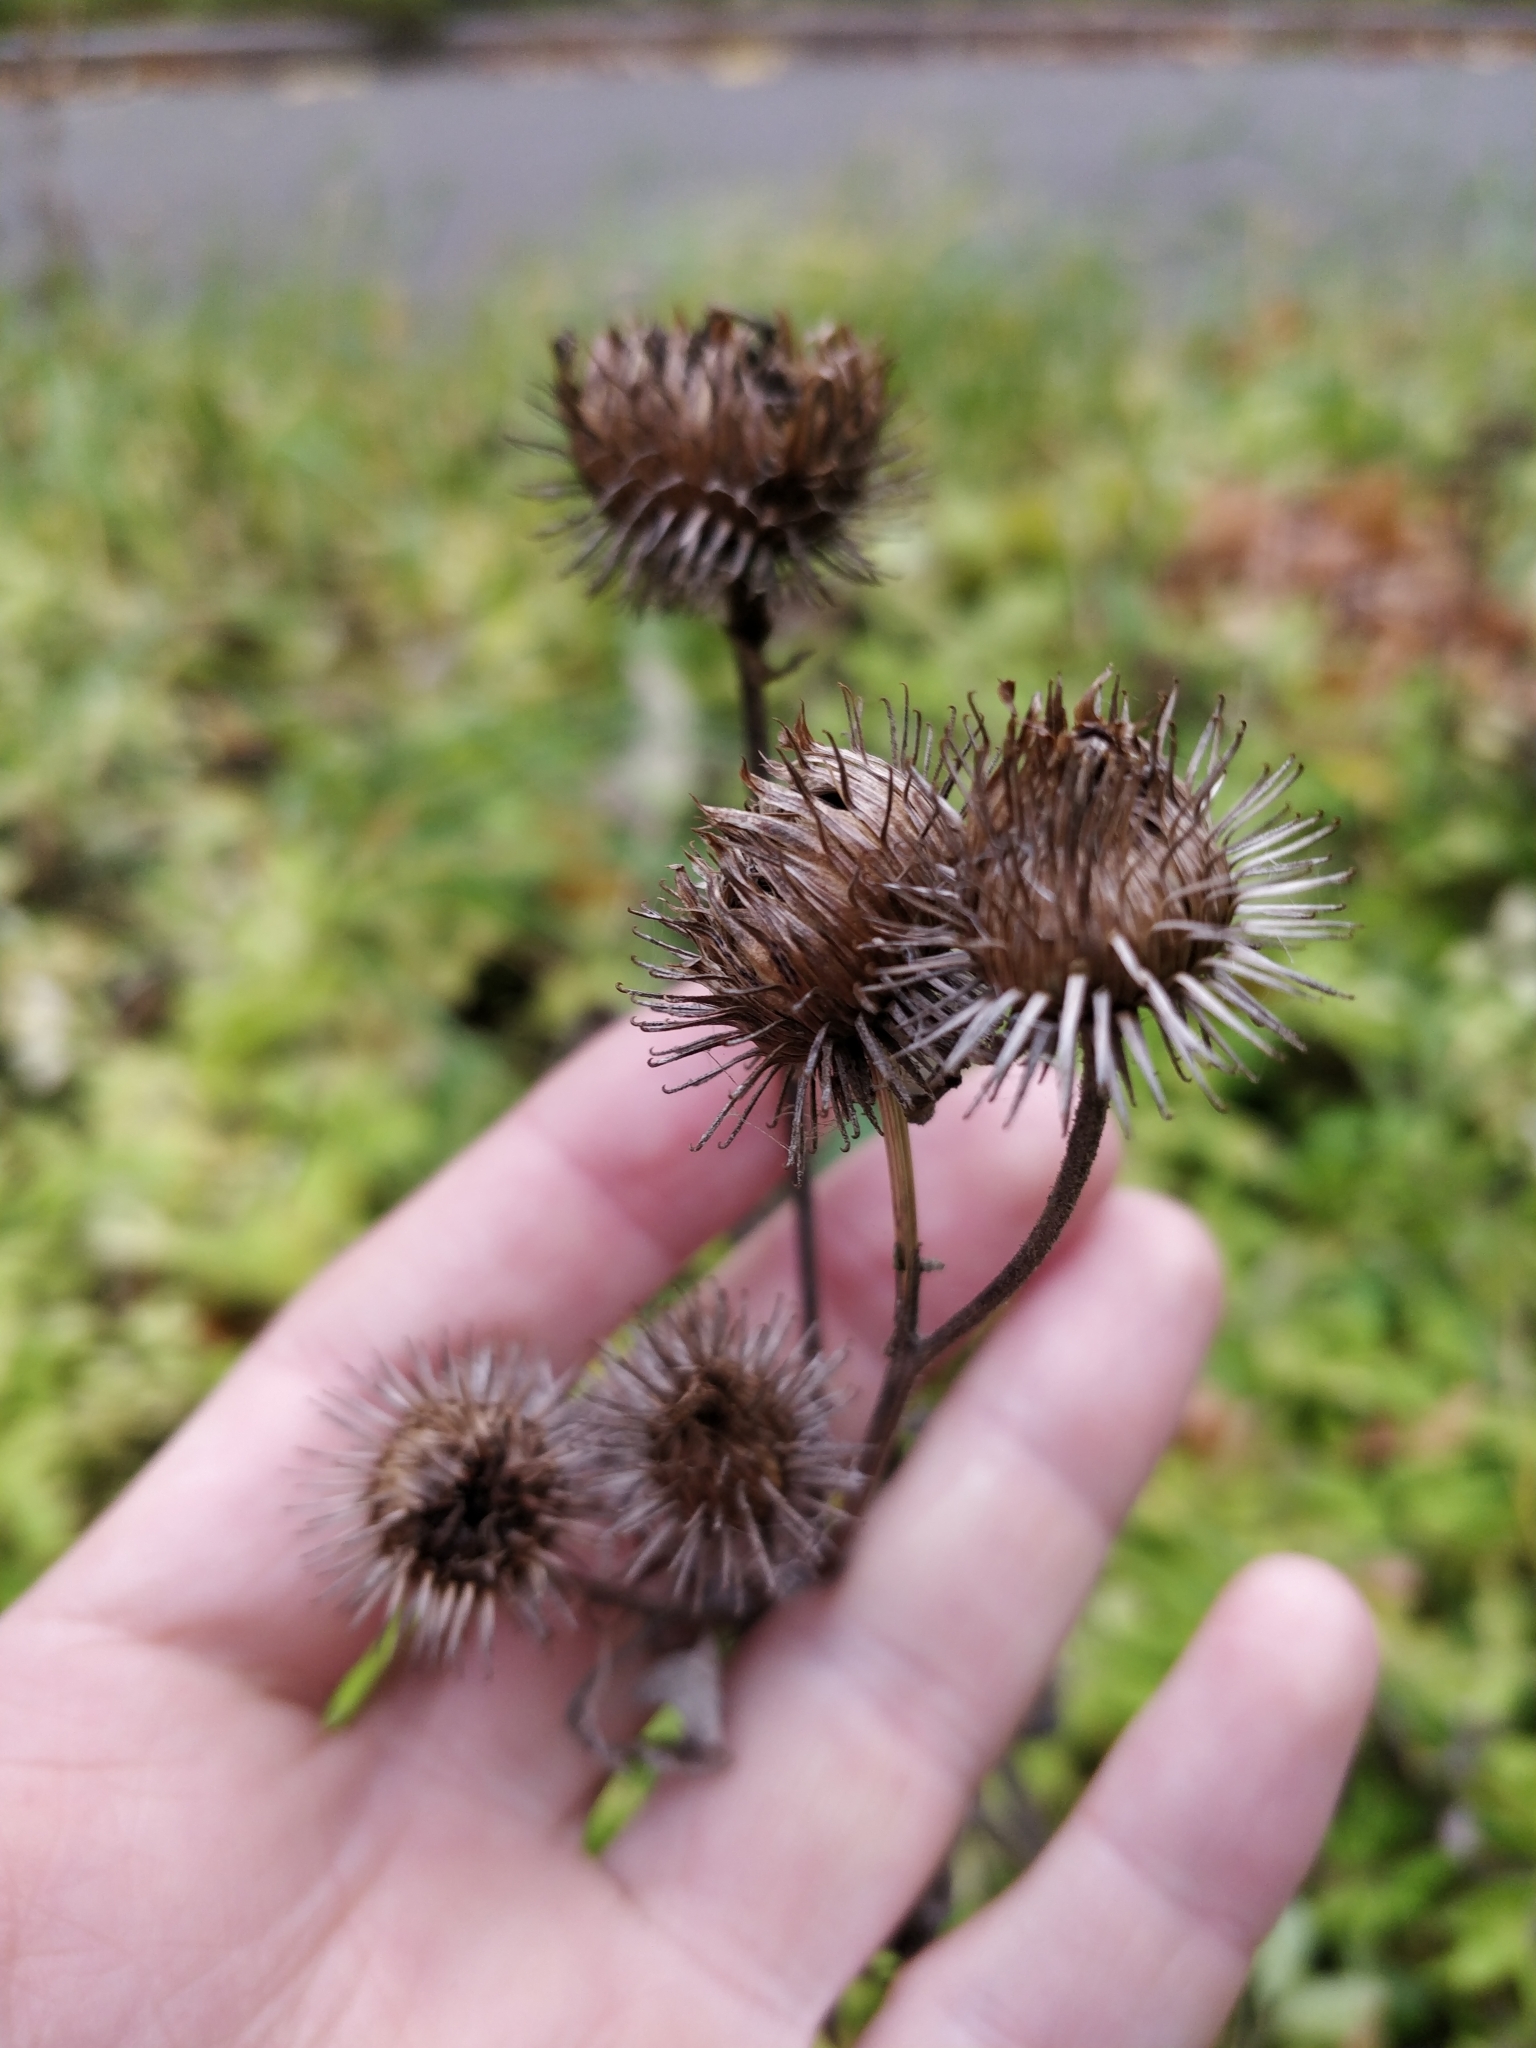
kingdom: Plantae
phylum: Tracheophyta
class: Magnoliopsida
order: Asterales
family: Asteraceae
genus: Arctium
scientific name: Arctium tomentosum
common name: Woolly burdock
